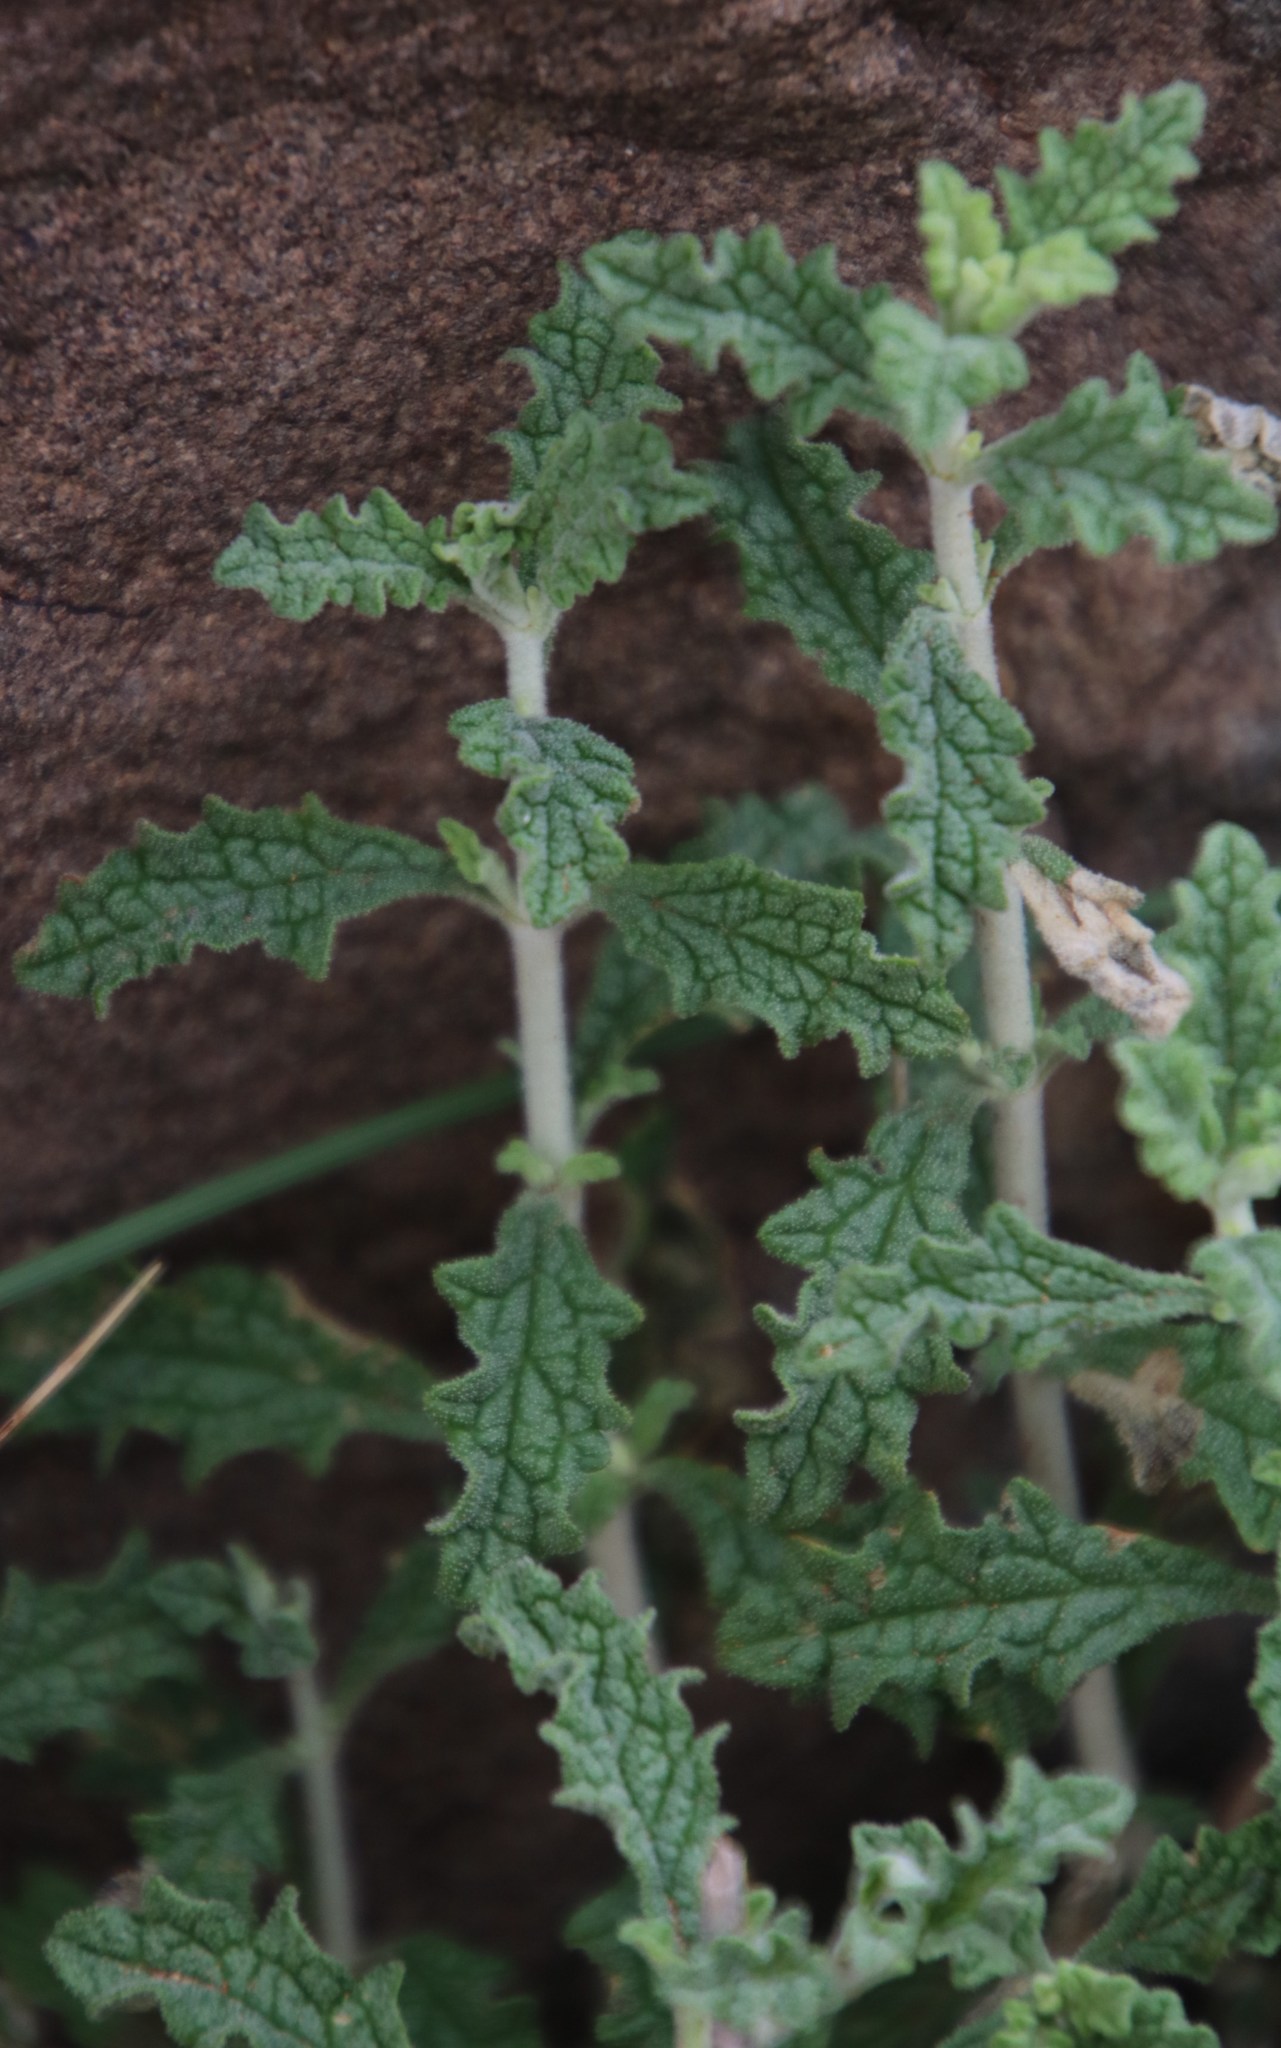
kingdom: Plantae
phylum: Tracheophyta
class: Magnoliopsida
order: Lamiales
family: Lamiaceae
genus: Stachys
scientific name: Stachys cuneata
